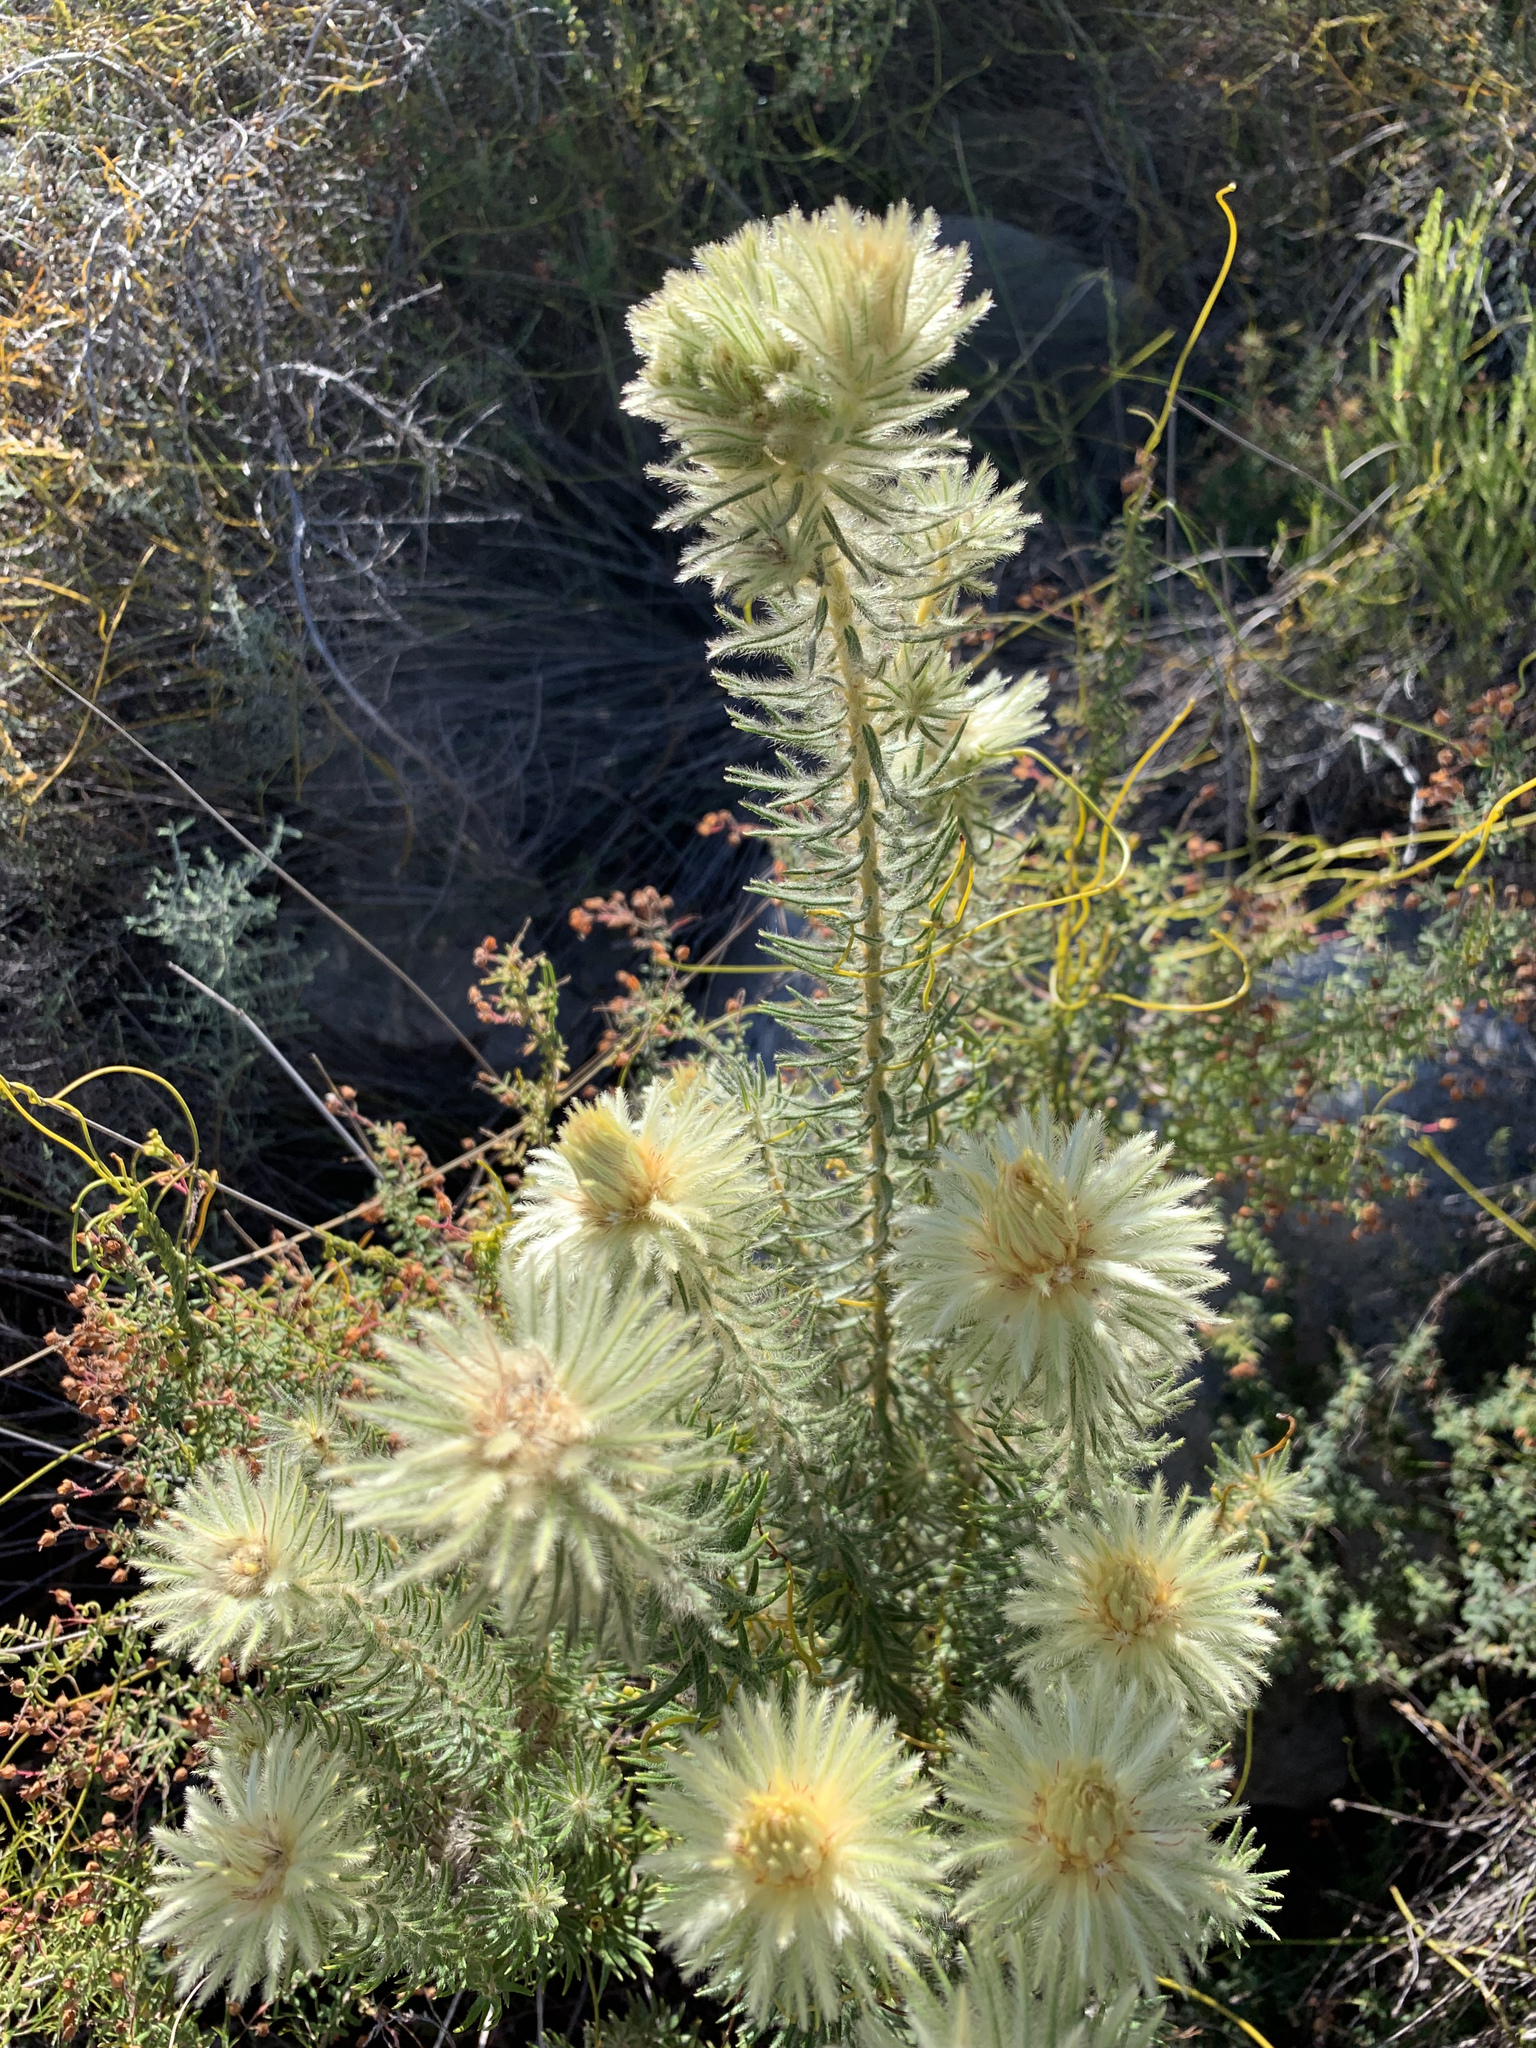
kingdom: Plantae
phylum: Tracheophyta
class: Magnoliopsida
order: Rosales
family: Rhamnaceae
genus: Phylica
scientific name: Phylica pubescens
